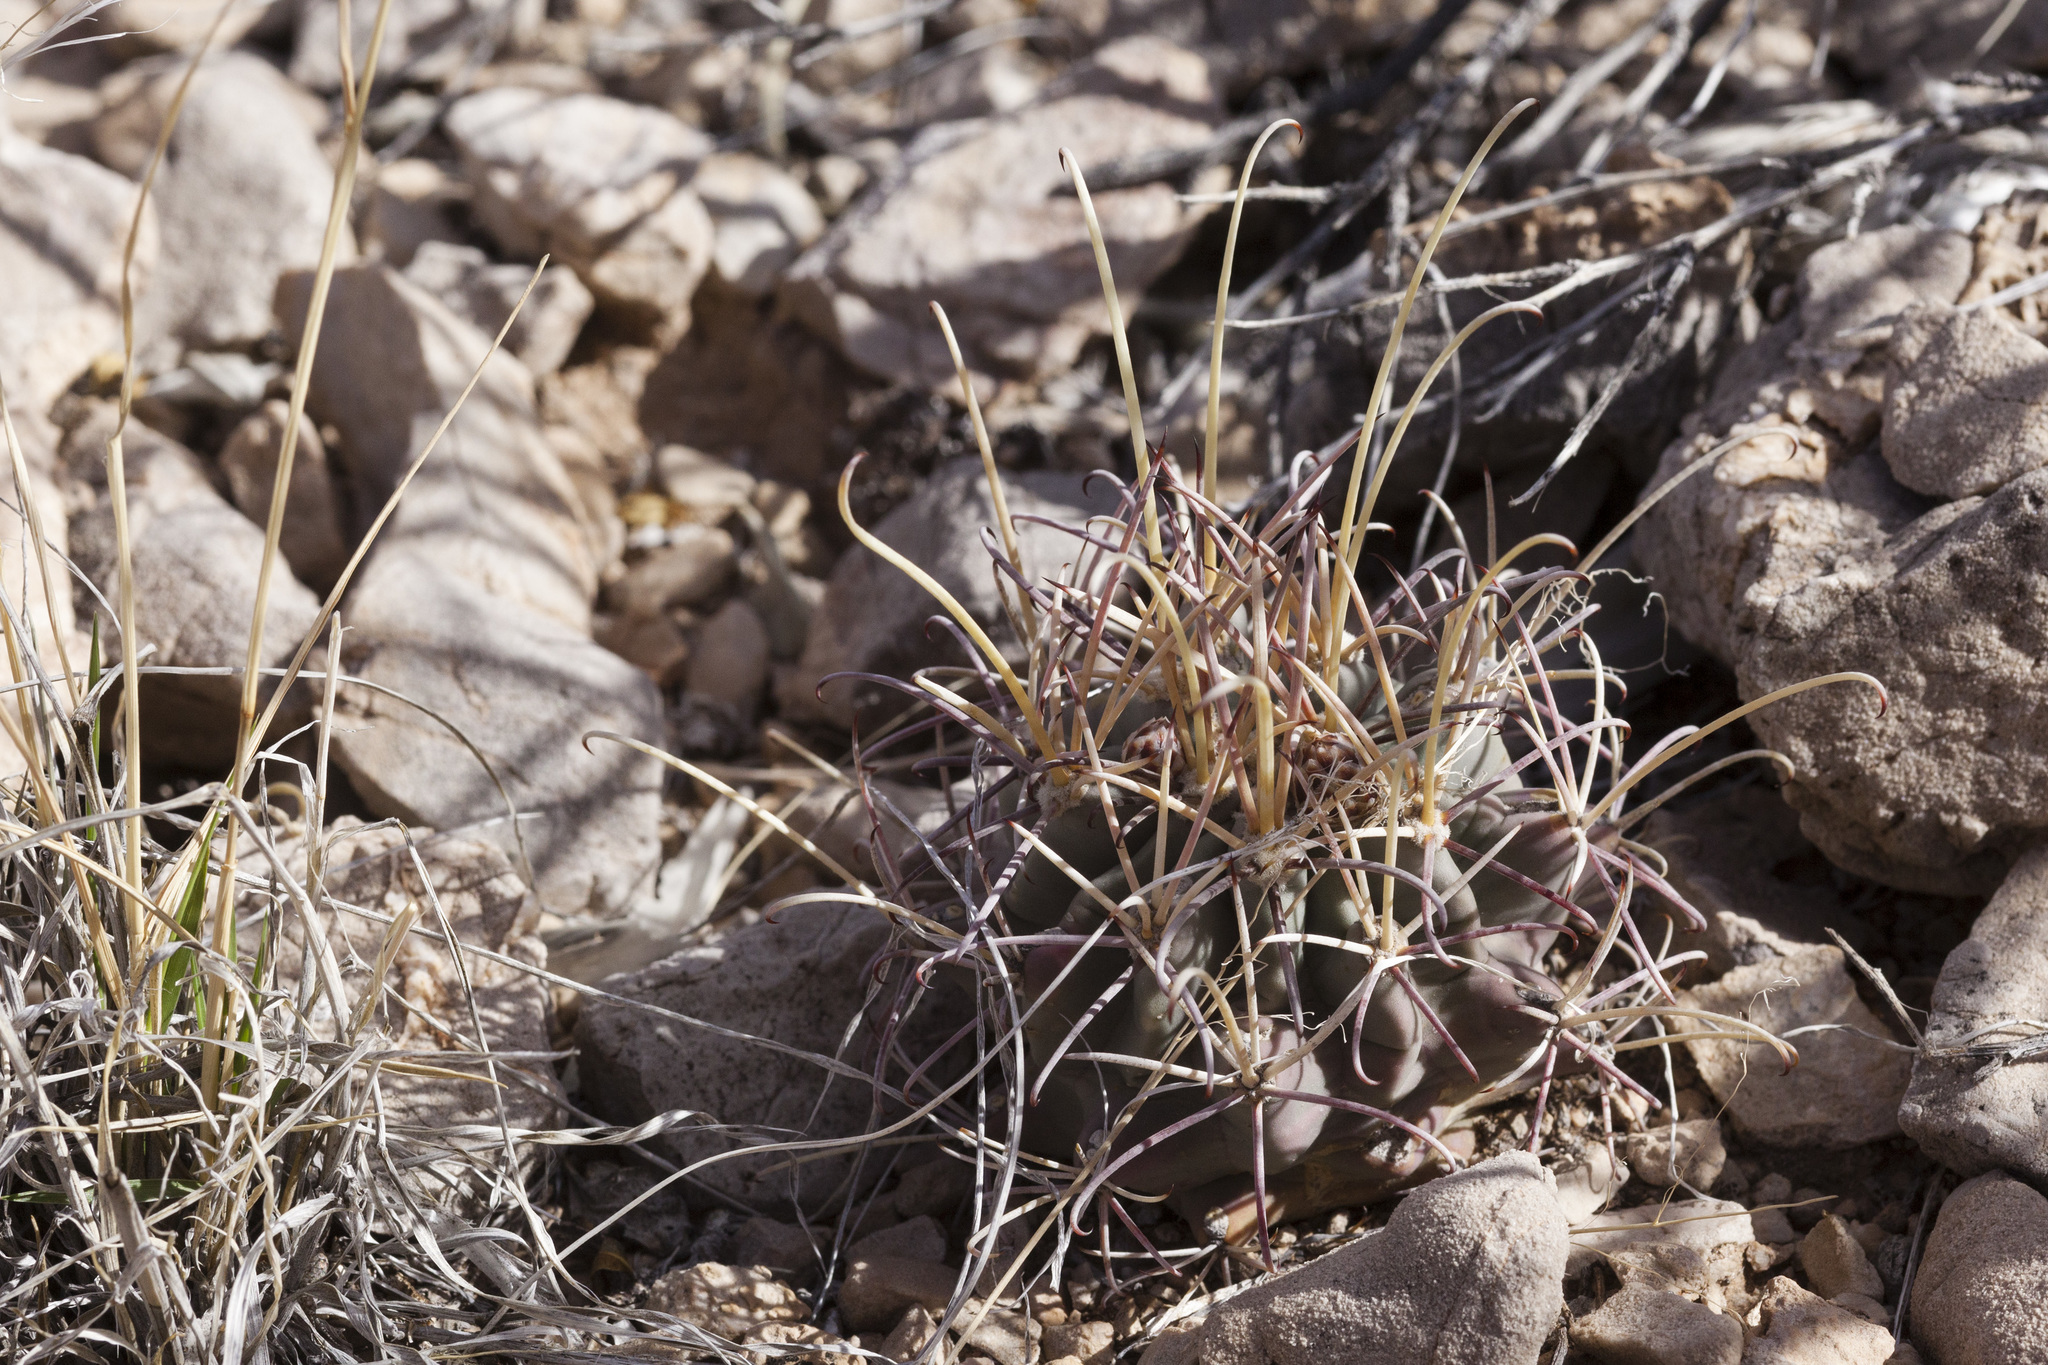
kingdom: Plantae
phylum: Tracheophyta
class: Magnoliopsida
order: Caryophyllales
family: Cactaceae
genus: Ferocactus
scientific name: Ferocactus uncinatus
